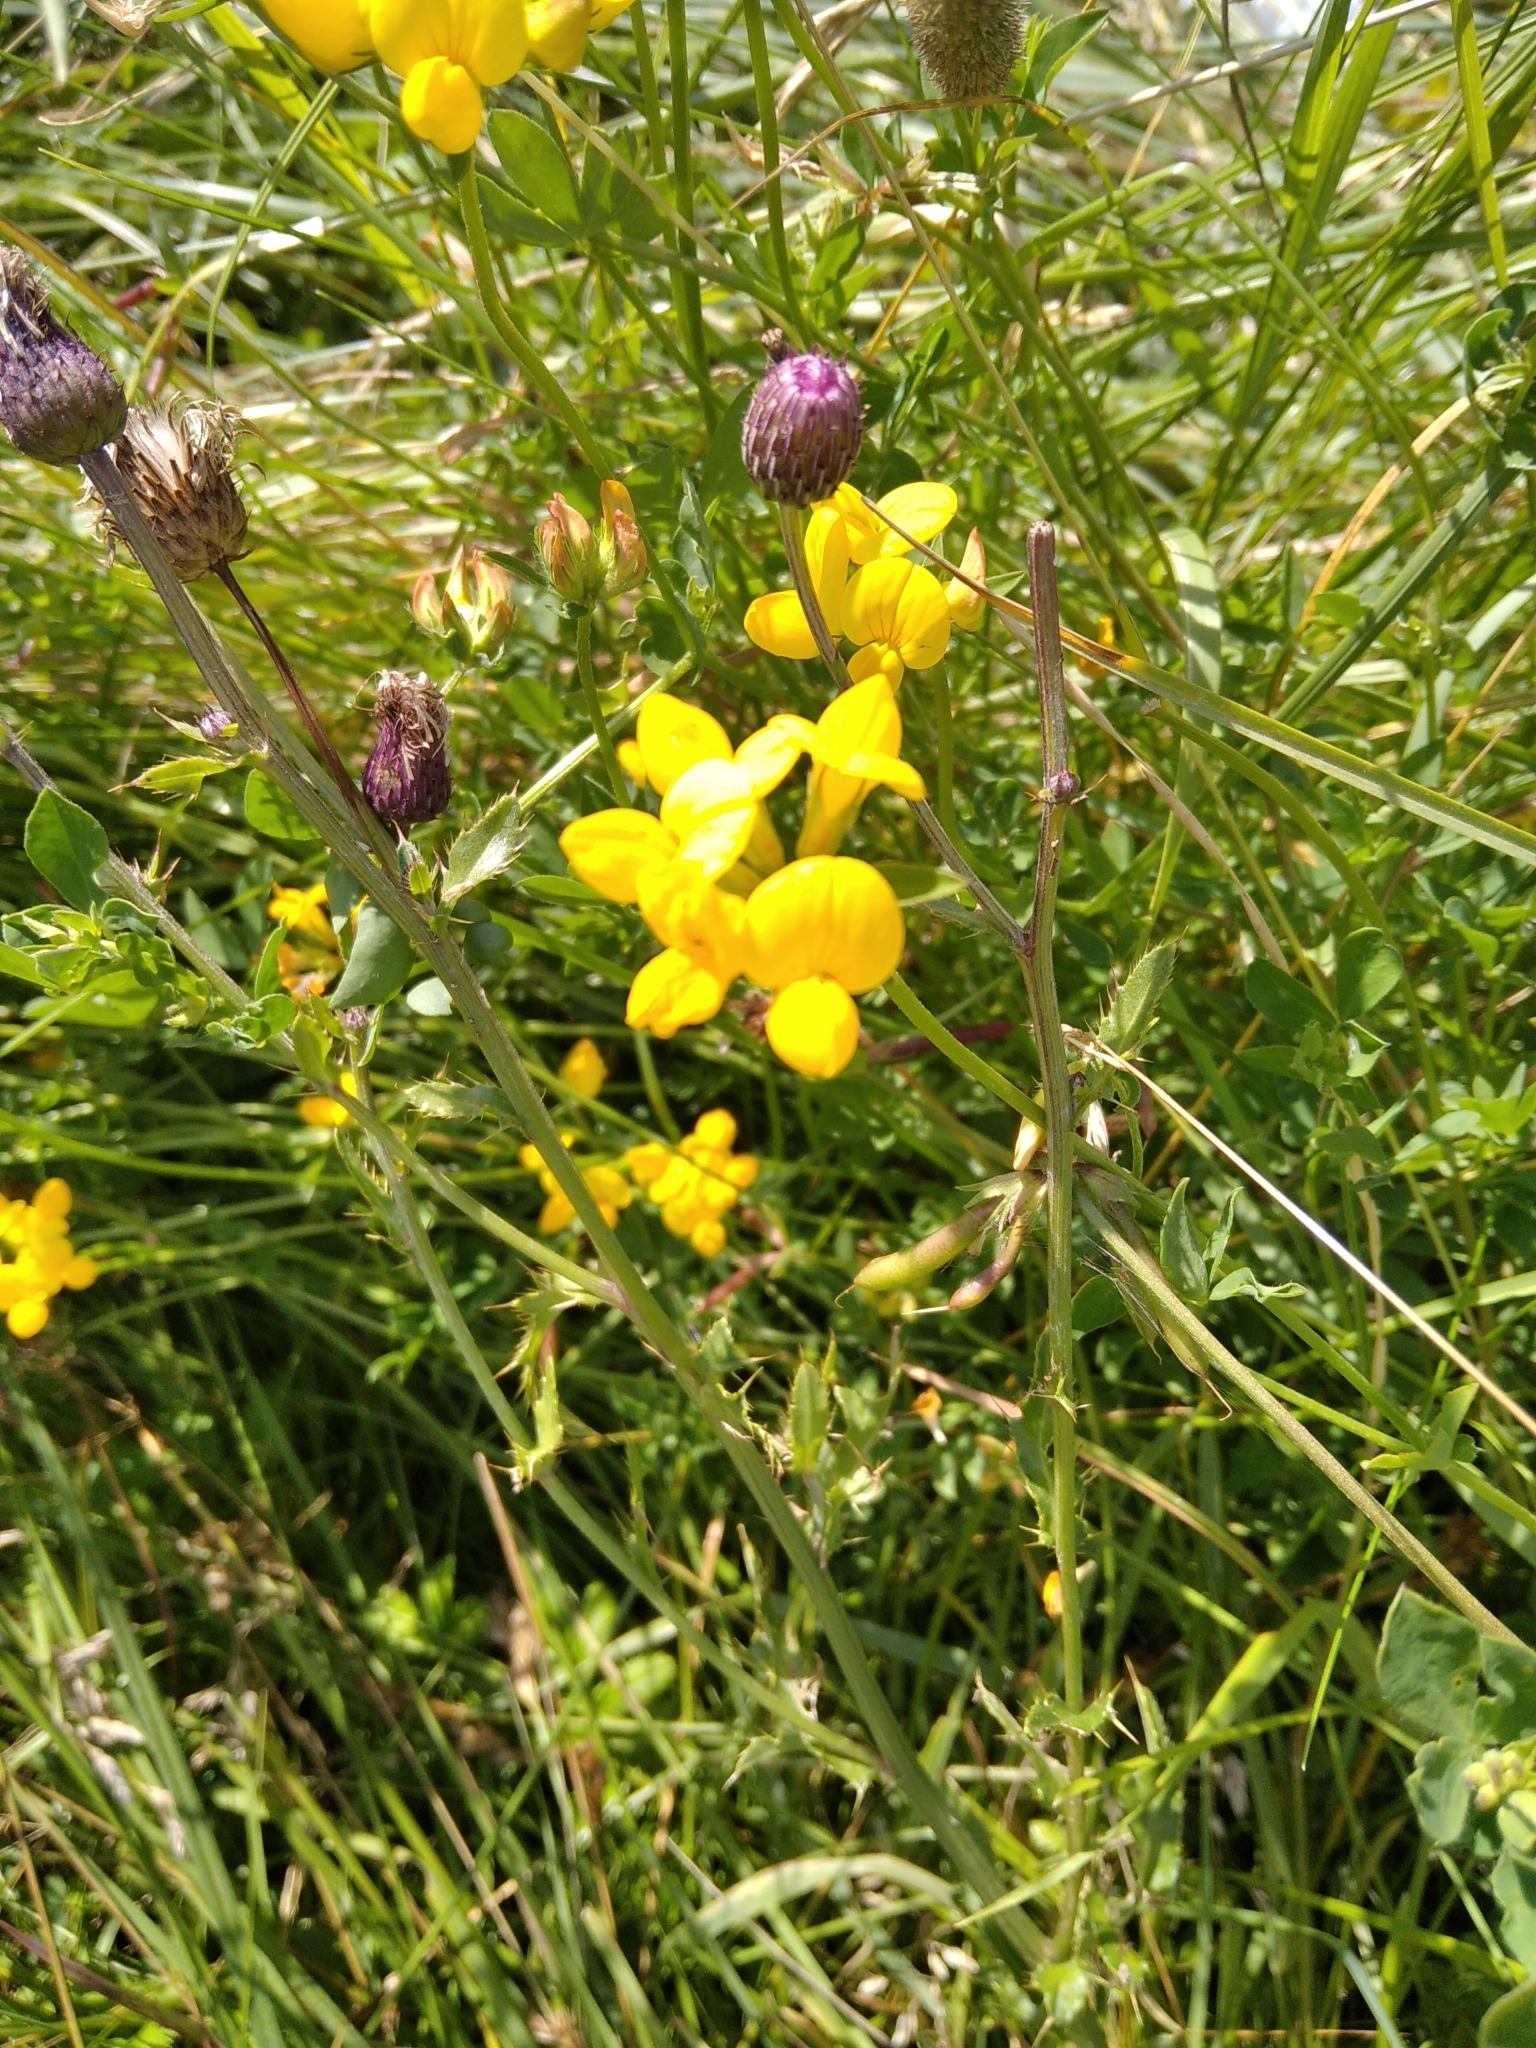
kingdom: Plantae
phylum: Tracheophyta
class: Magnoliopsida
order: Fabales
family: Fabaceae
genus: Lotus
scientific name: Lotus corniculatus
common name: Common bird's-foot-trefoil
